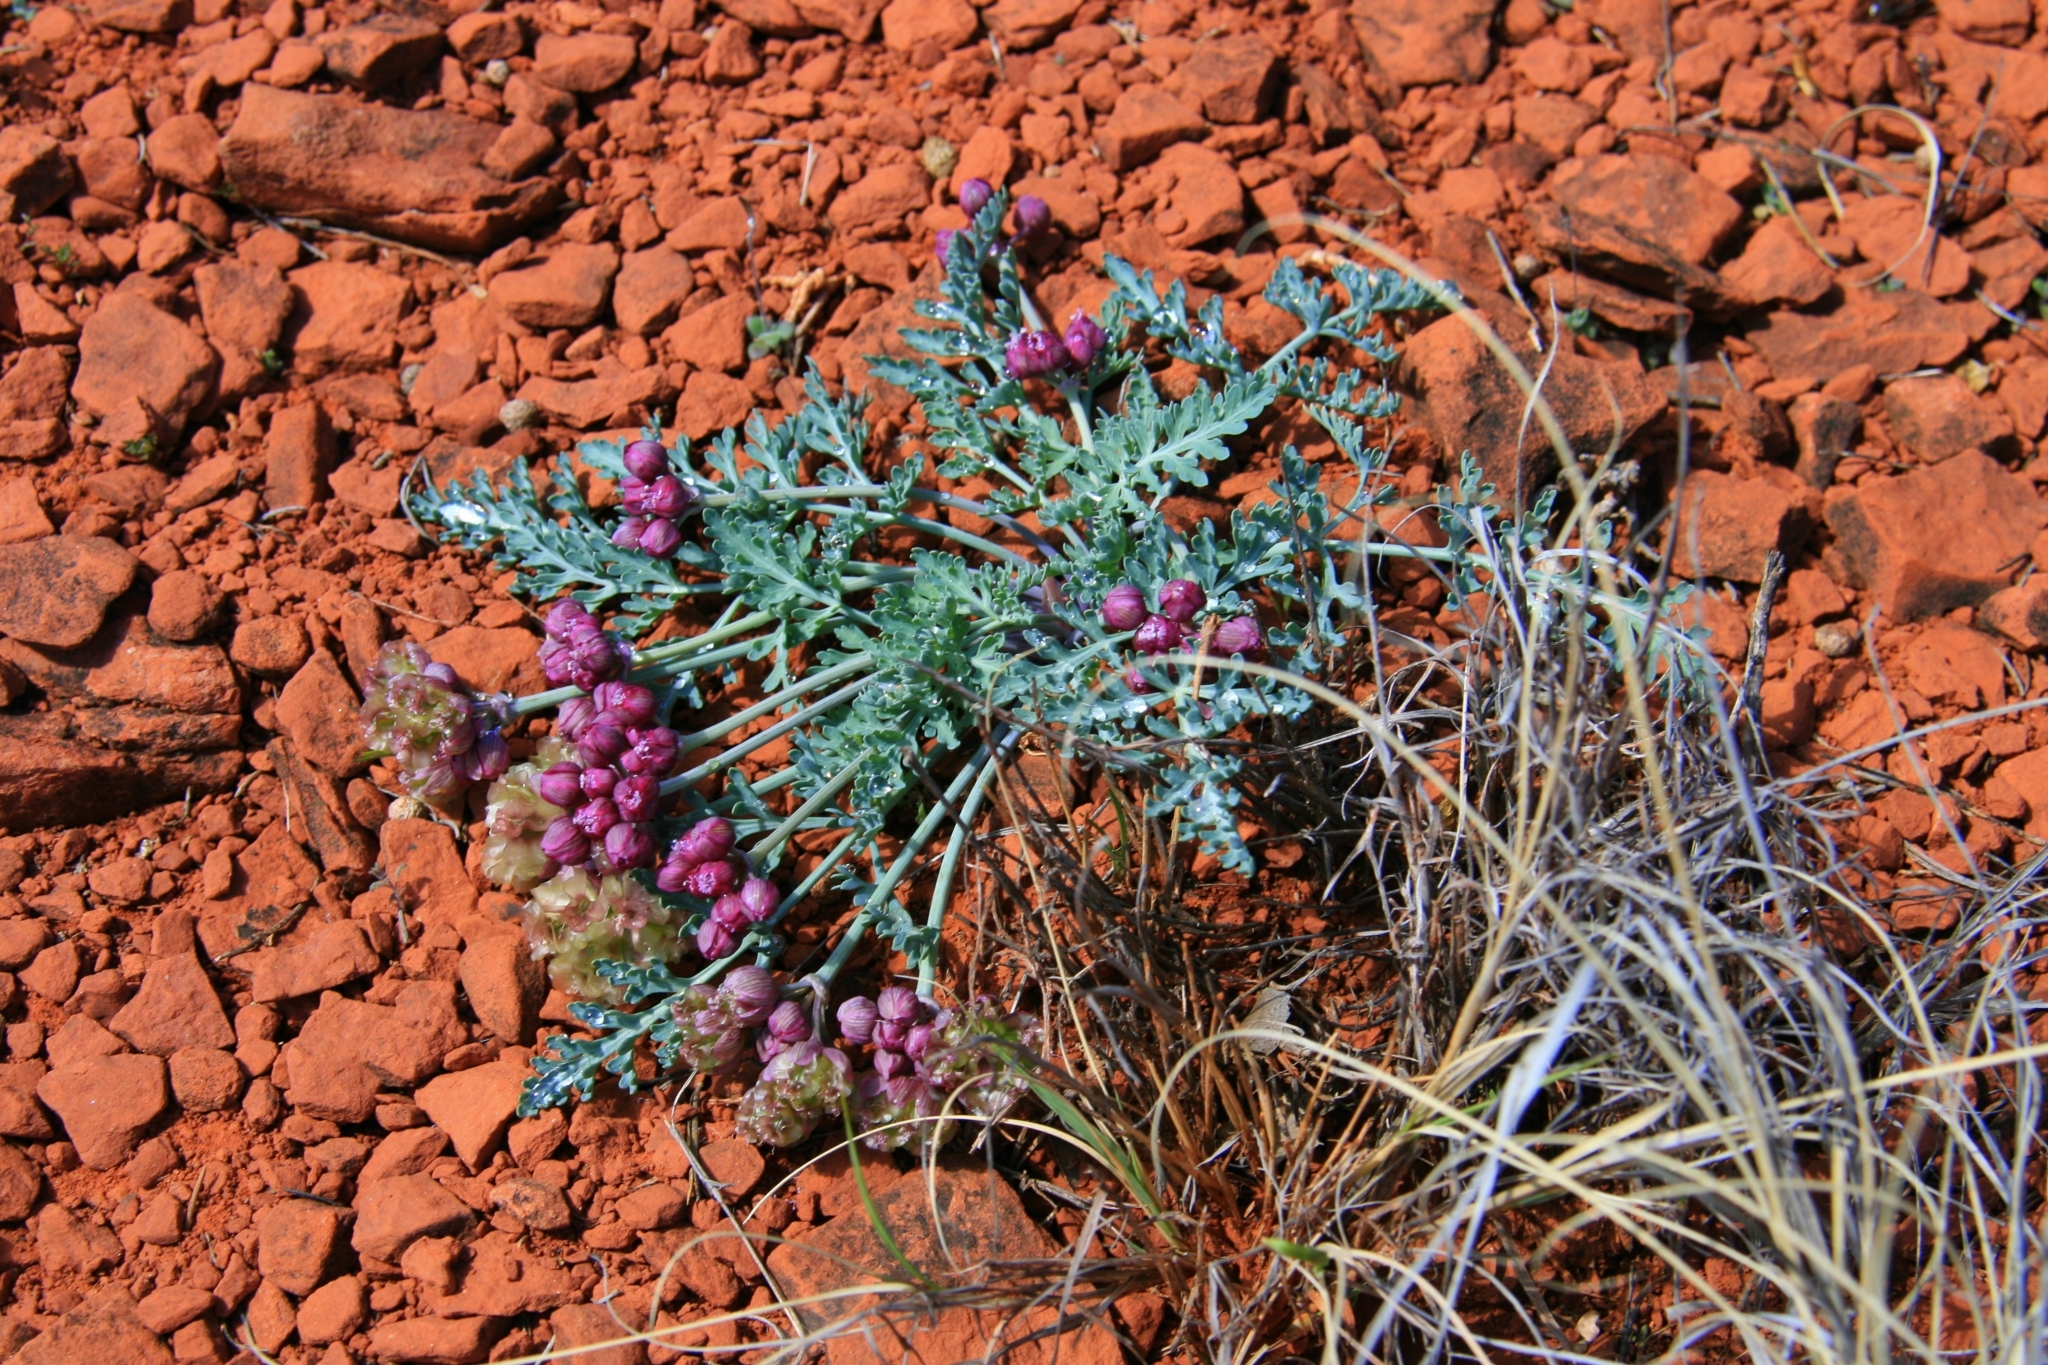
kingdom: Plantae
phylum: Tracheophyta
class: Magnoliopsida
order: Apiales
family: Apiaceae
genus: Vesper
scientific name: Vesper multinervatus
